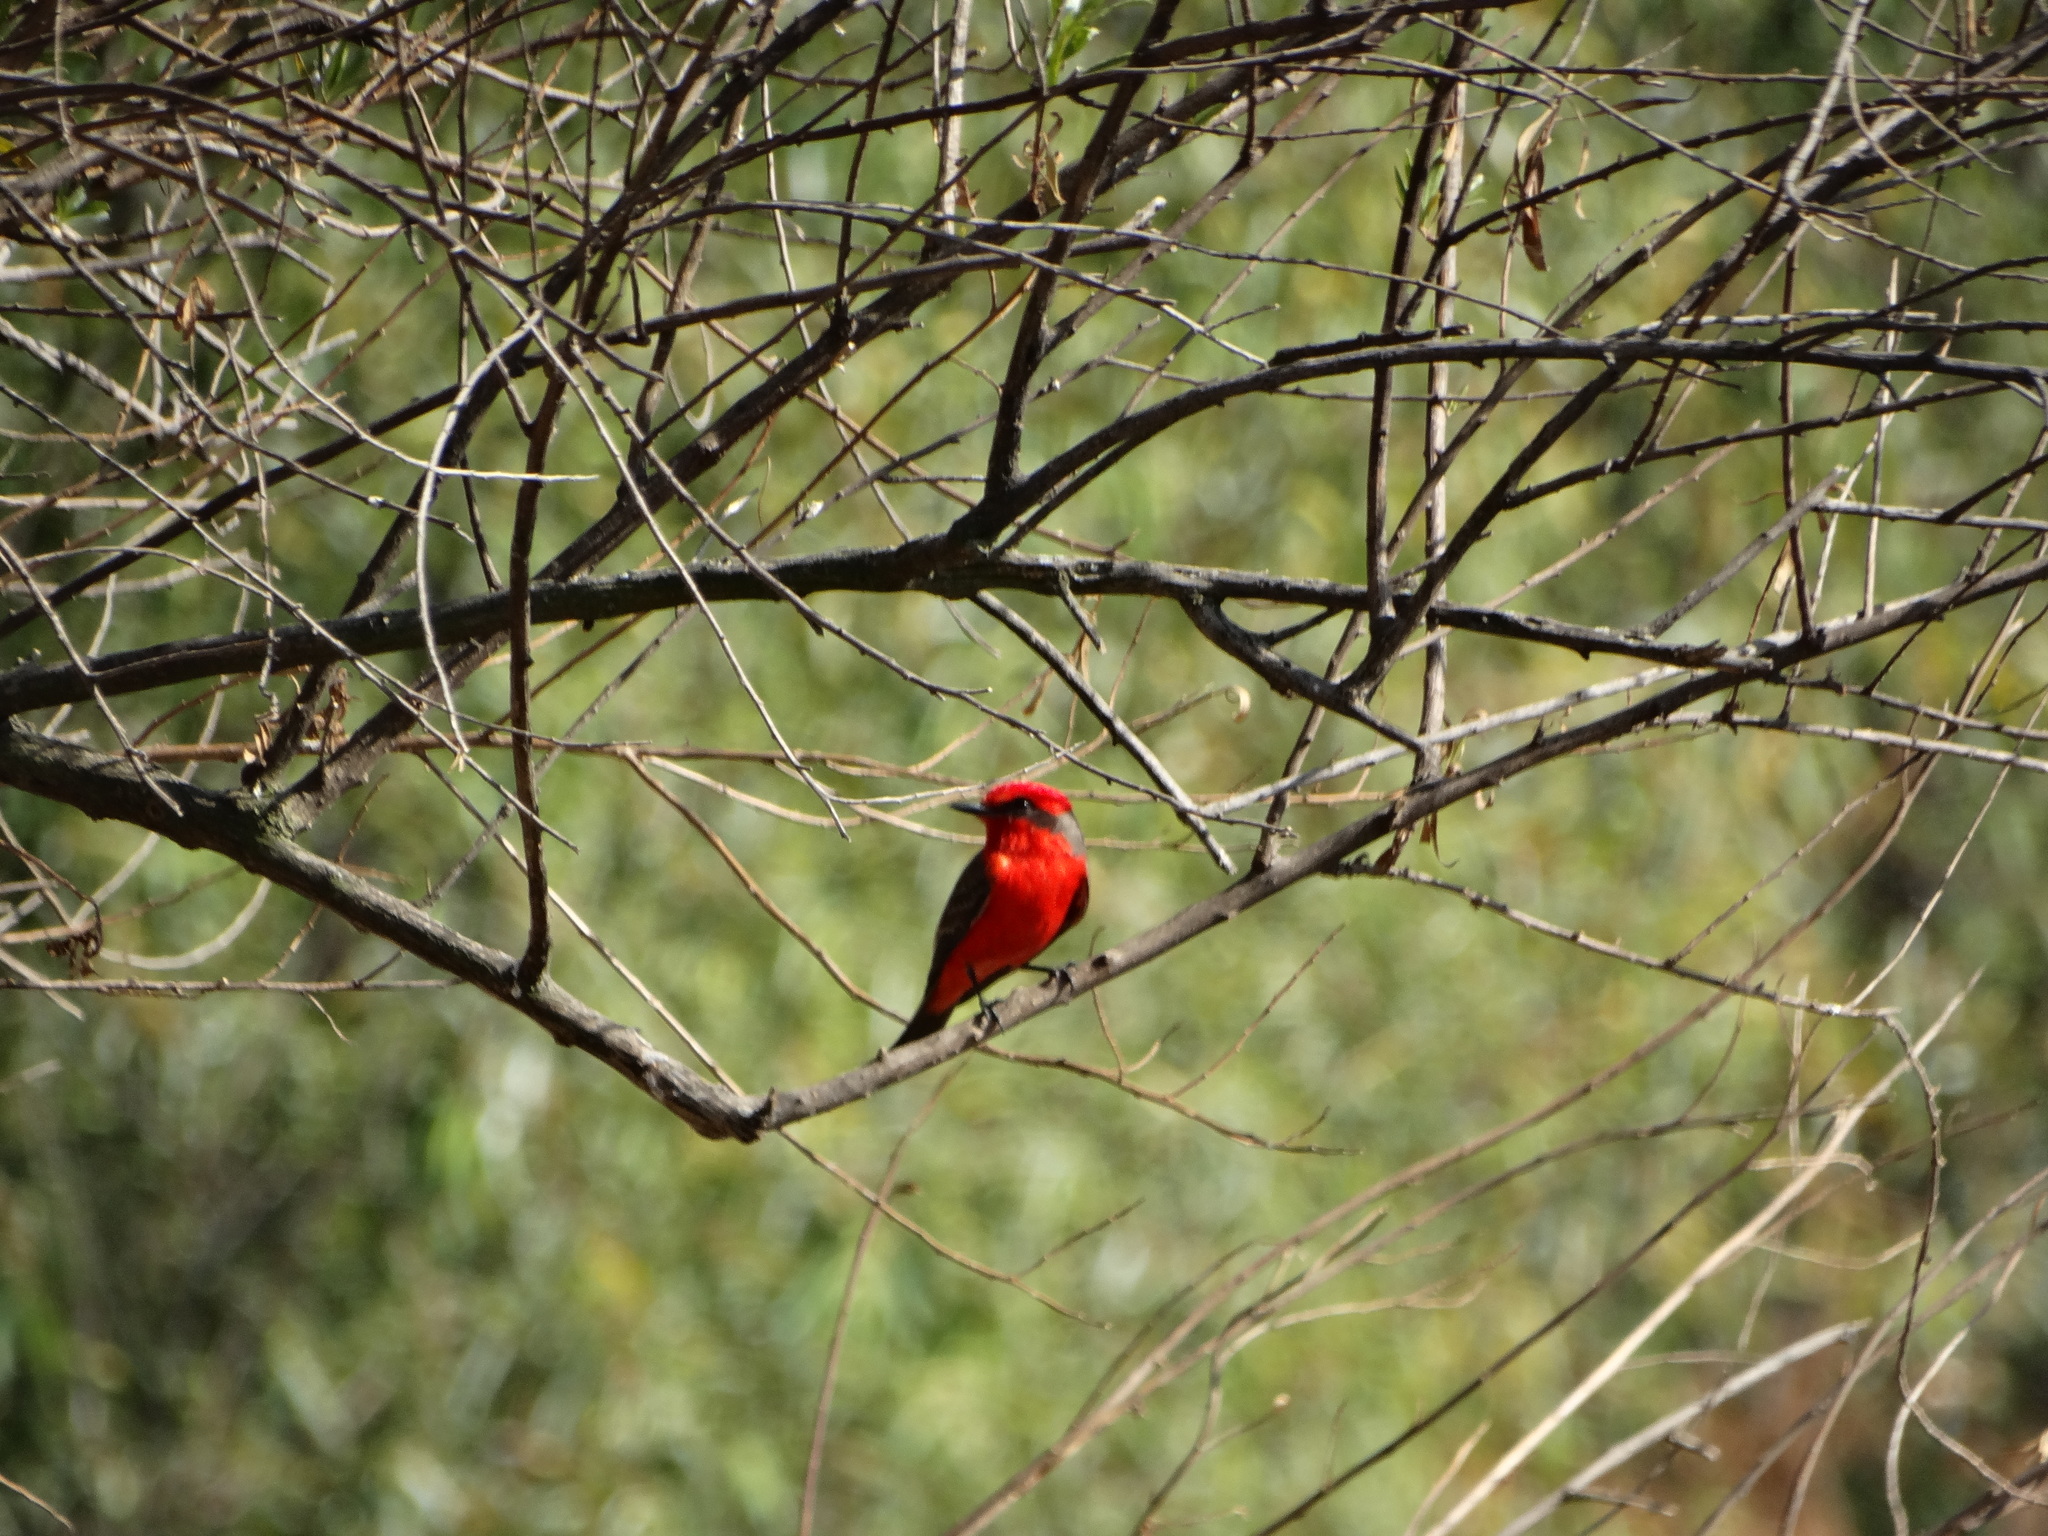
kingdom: Animalia
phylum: Chordata
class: Aves
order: Passeriformes
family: Tyrannidae
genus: Pyrocephalus
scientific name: Pyrocephalus rubinus
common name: Vermilion flycatcher
